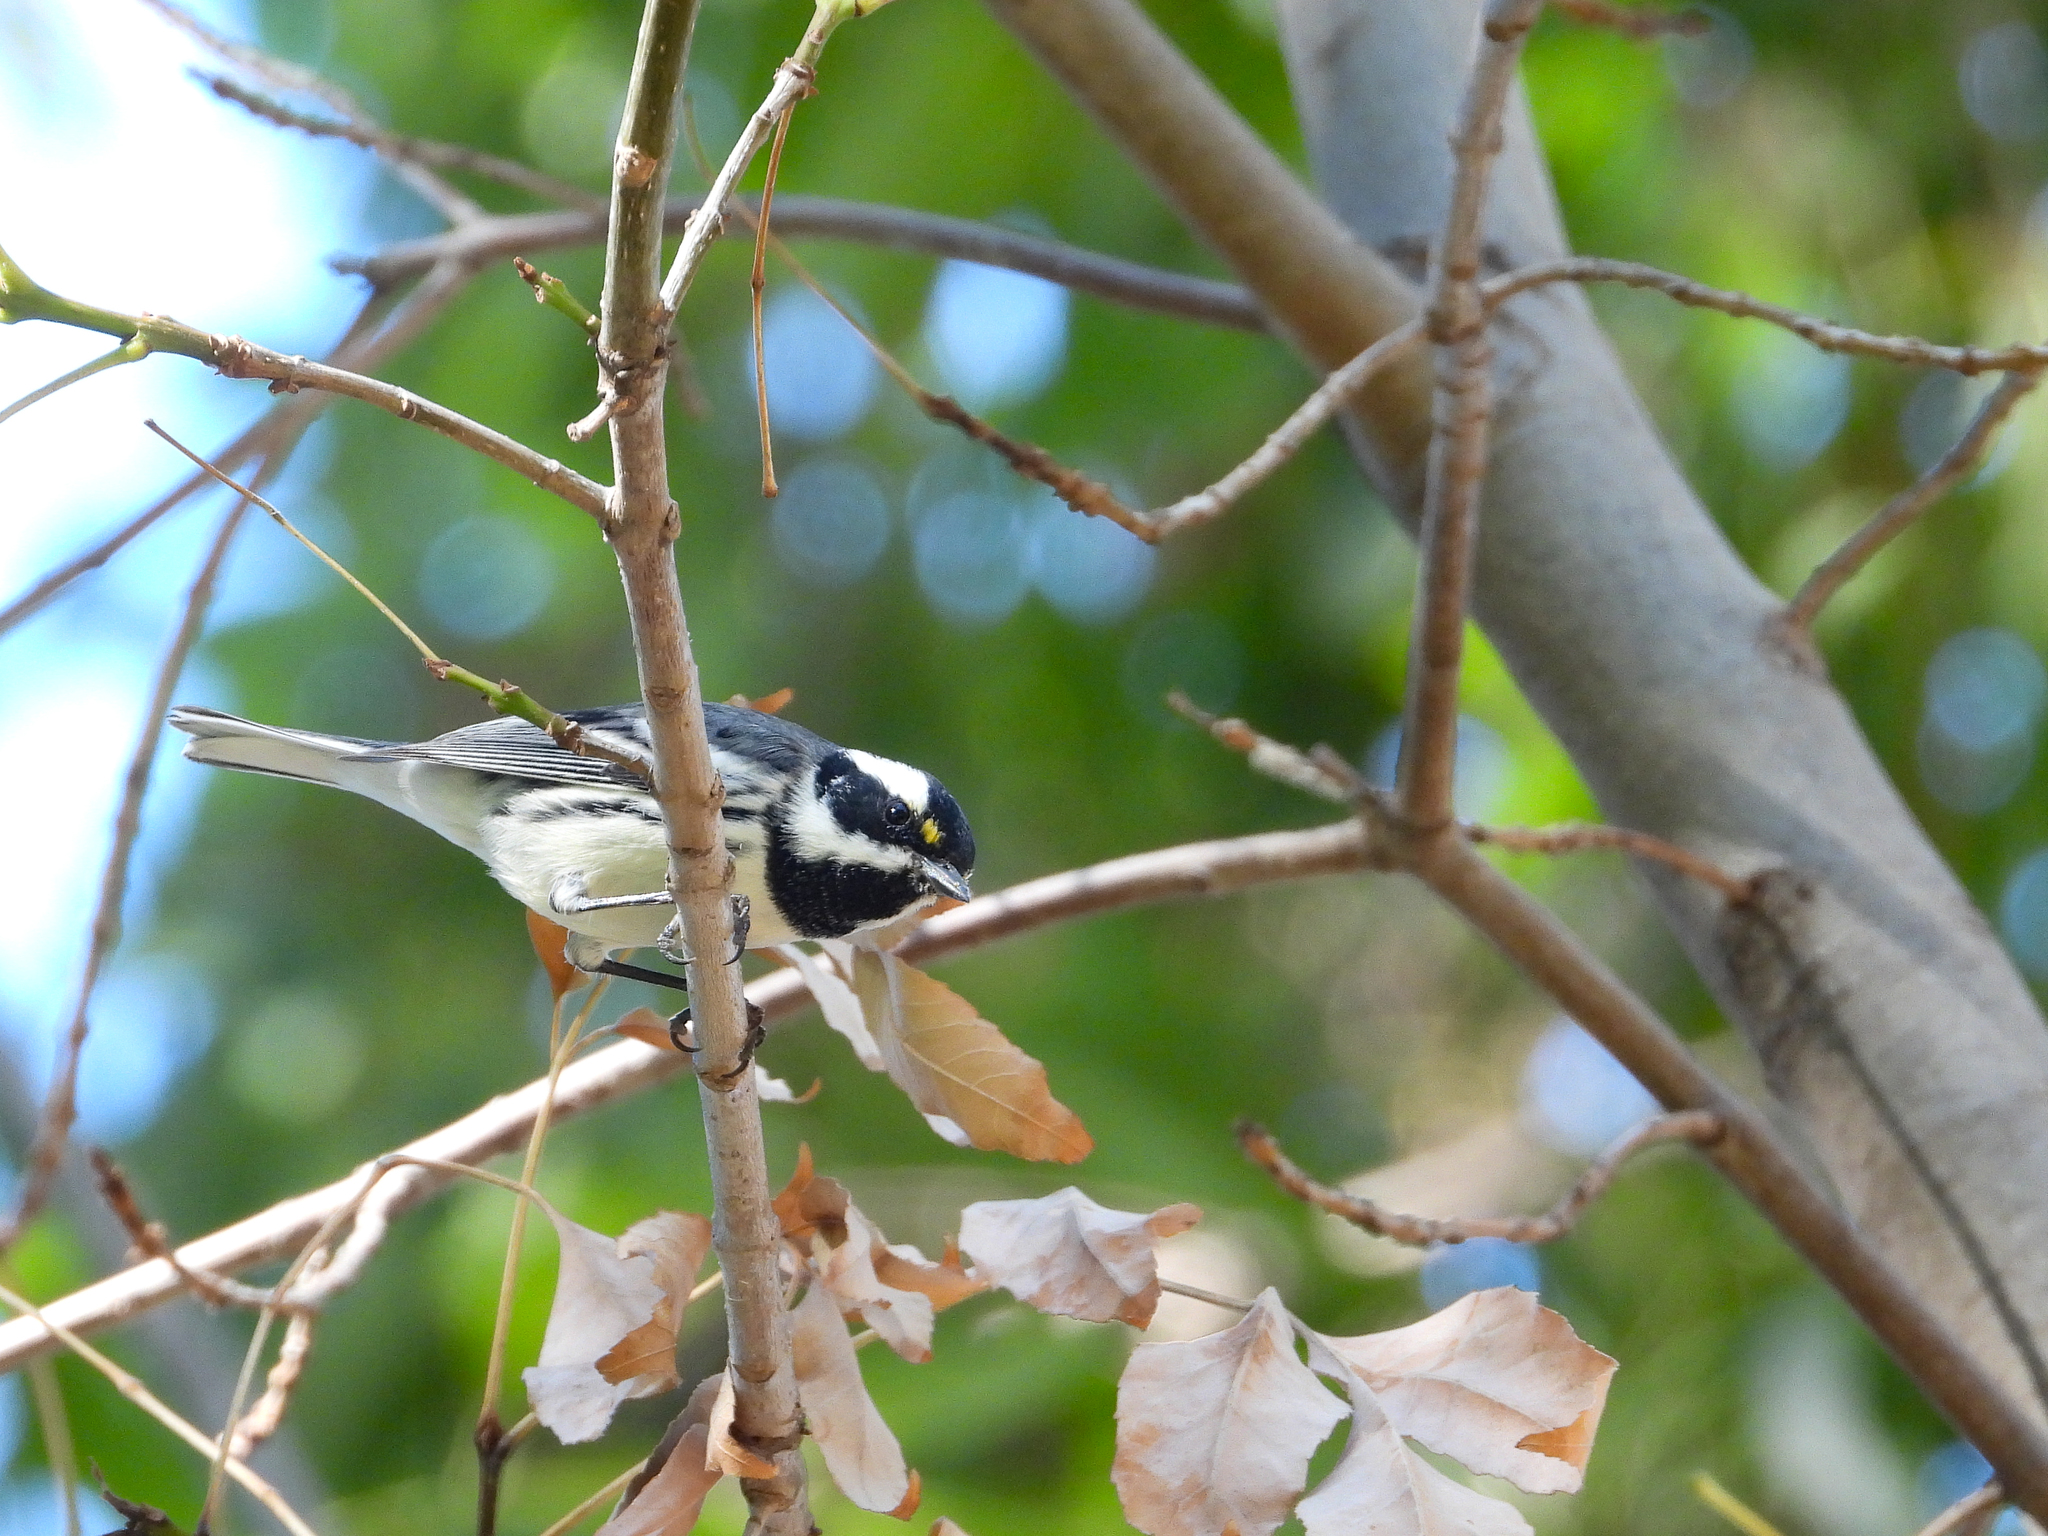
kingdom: Animalia
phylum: Chordata
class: Aves
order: Passeriformes
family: Parulidae
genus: Setophaga
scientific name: Setophaga nigrescens
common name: Black-throated gray warbler
